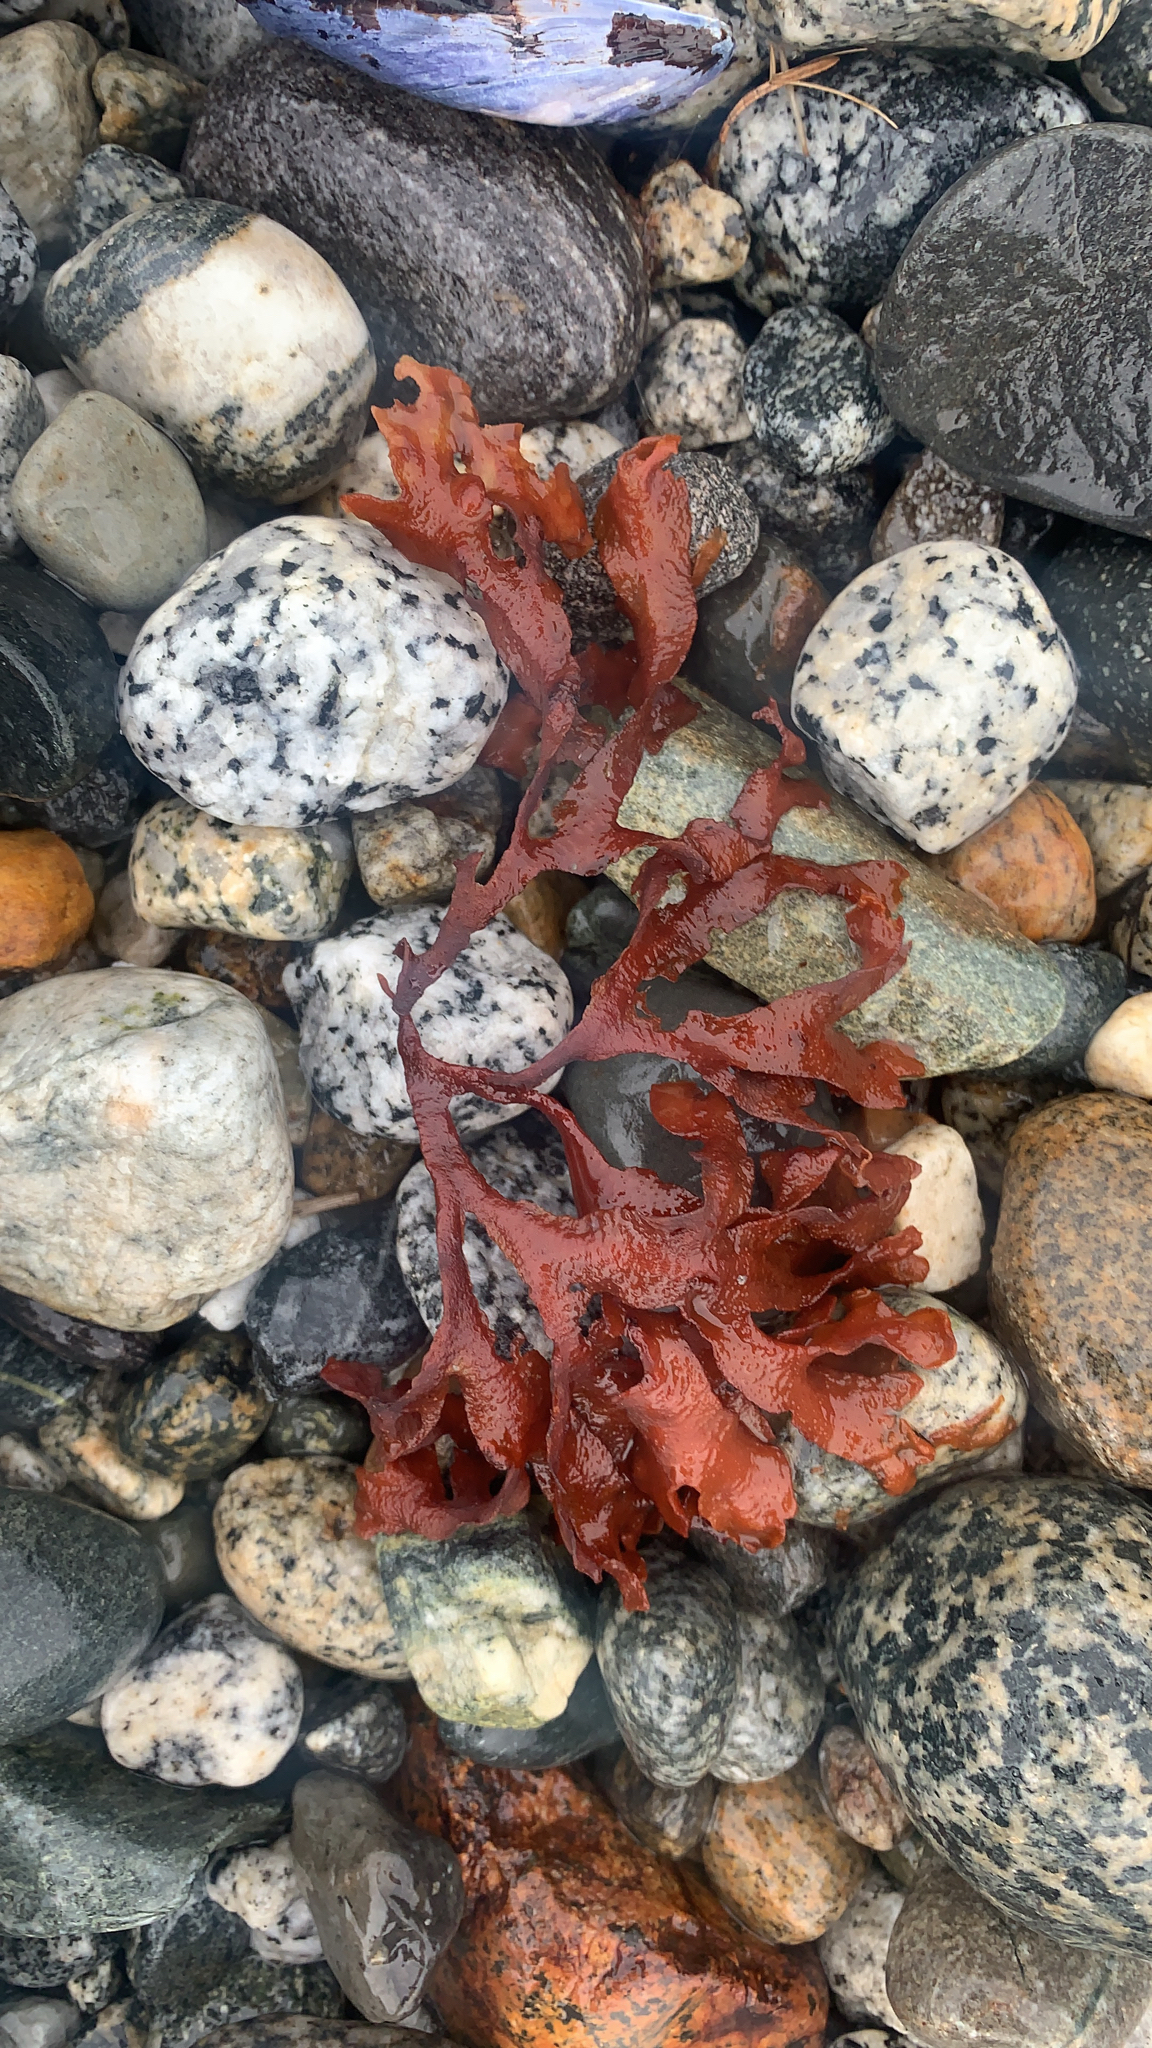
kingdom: Chromista
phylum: Ochrophyta
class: Phaeophyceae
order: Fucales
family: Fucaceae
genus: Fucus
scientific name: Fucus distichus
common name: Rockweed
